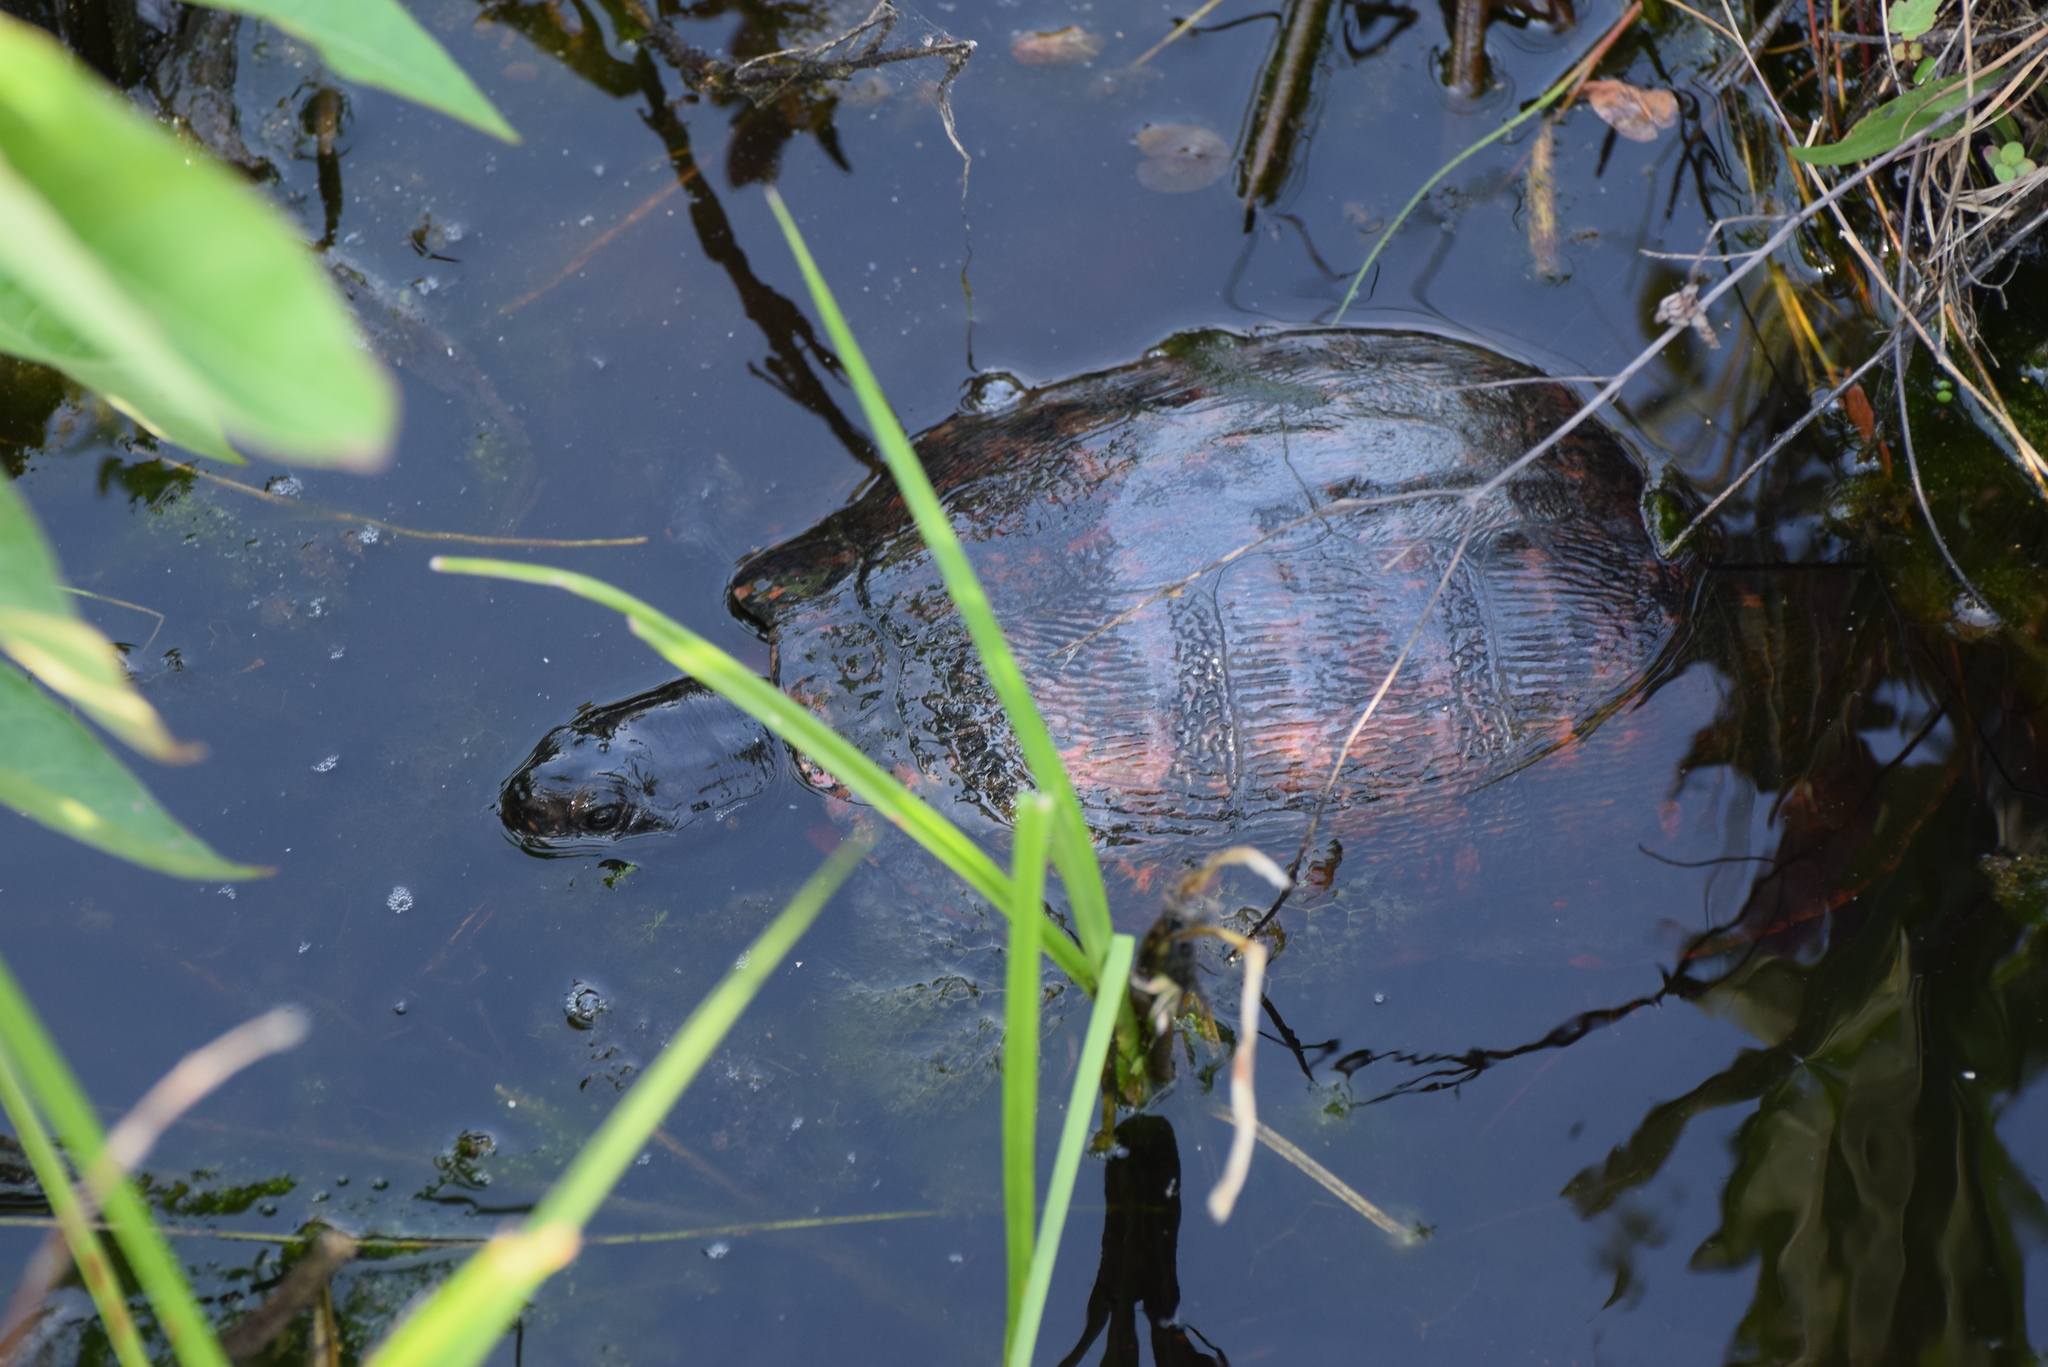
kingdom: Animalia
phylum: Chordata
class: Testudines
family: Emydidae
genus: Pseudemys
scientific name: Pseudemys rubriventris
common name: American red-bellied turtle
